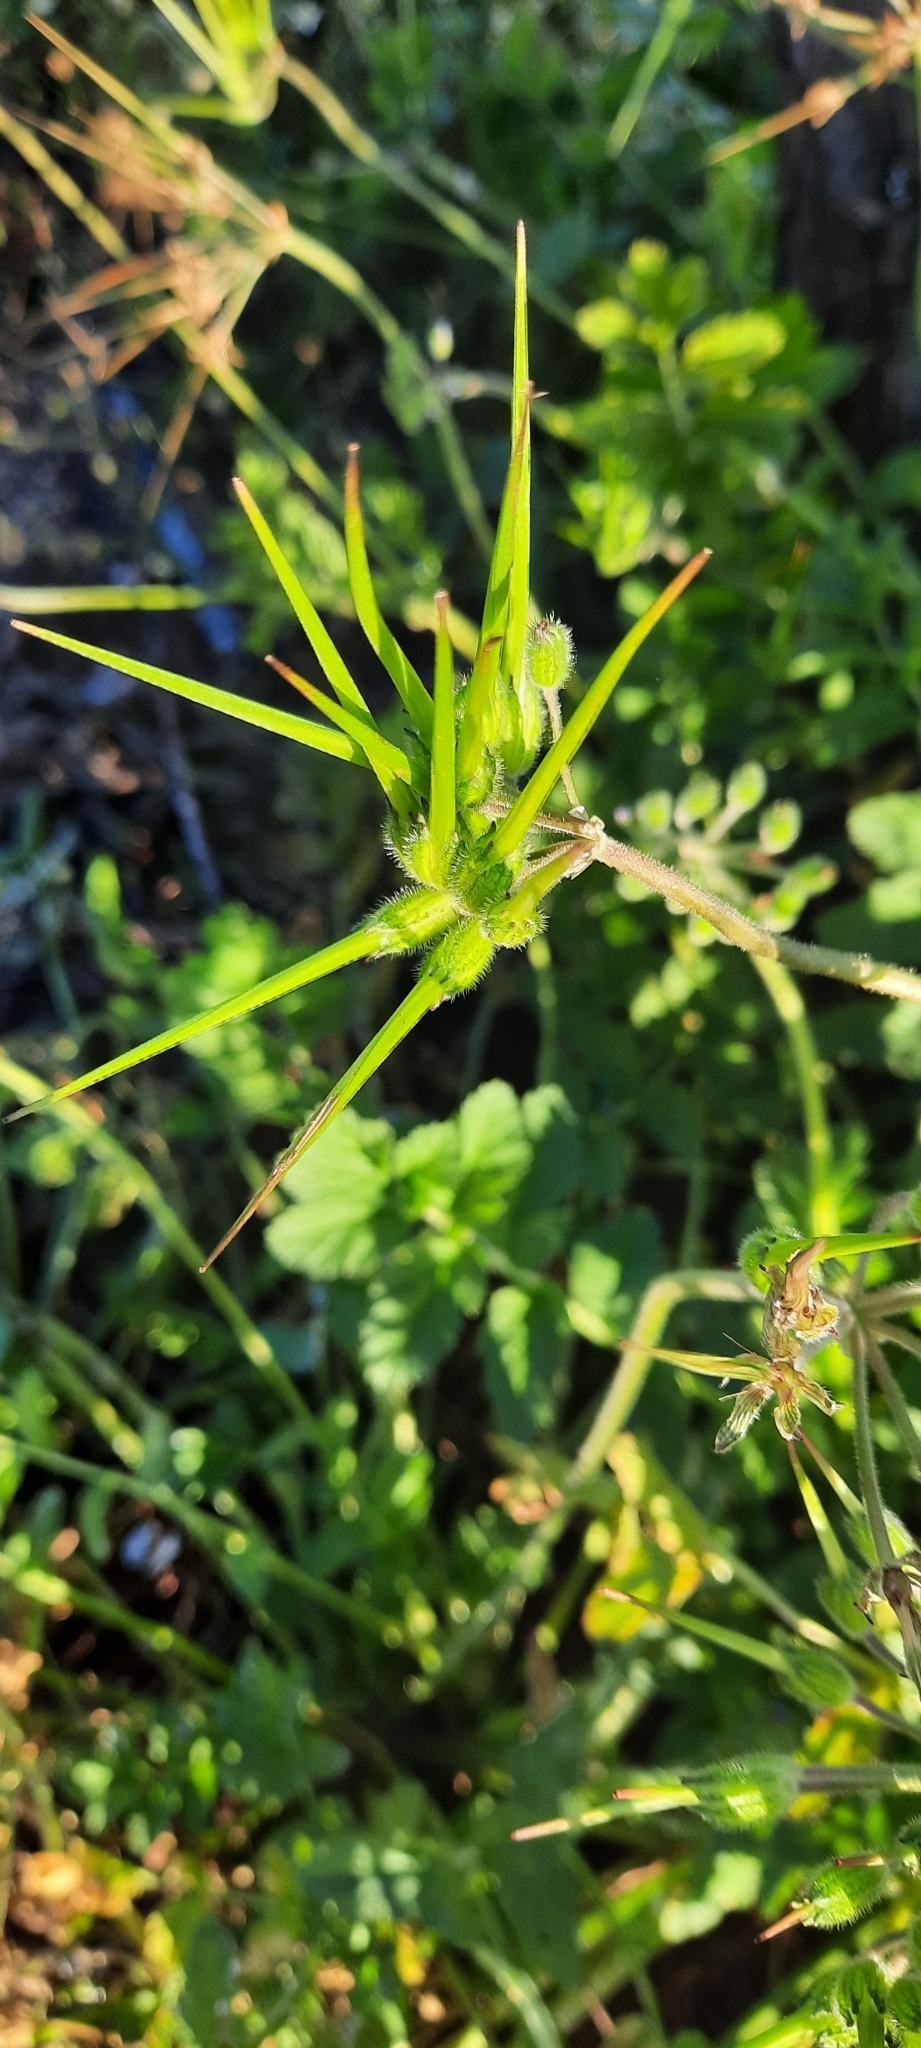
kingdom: Plantae
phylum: Tracheophyta
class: Magnoliopsida
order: Geraniales
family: Geraniaceae
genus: Erodium
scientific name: Erodium moschatum
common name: Musk stork's-bill
